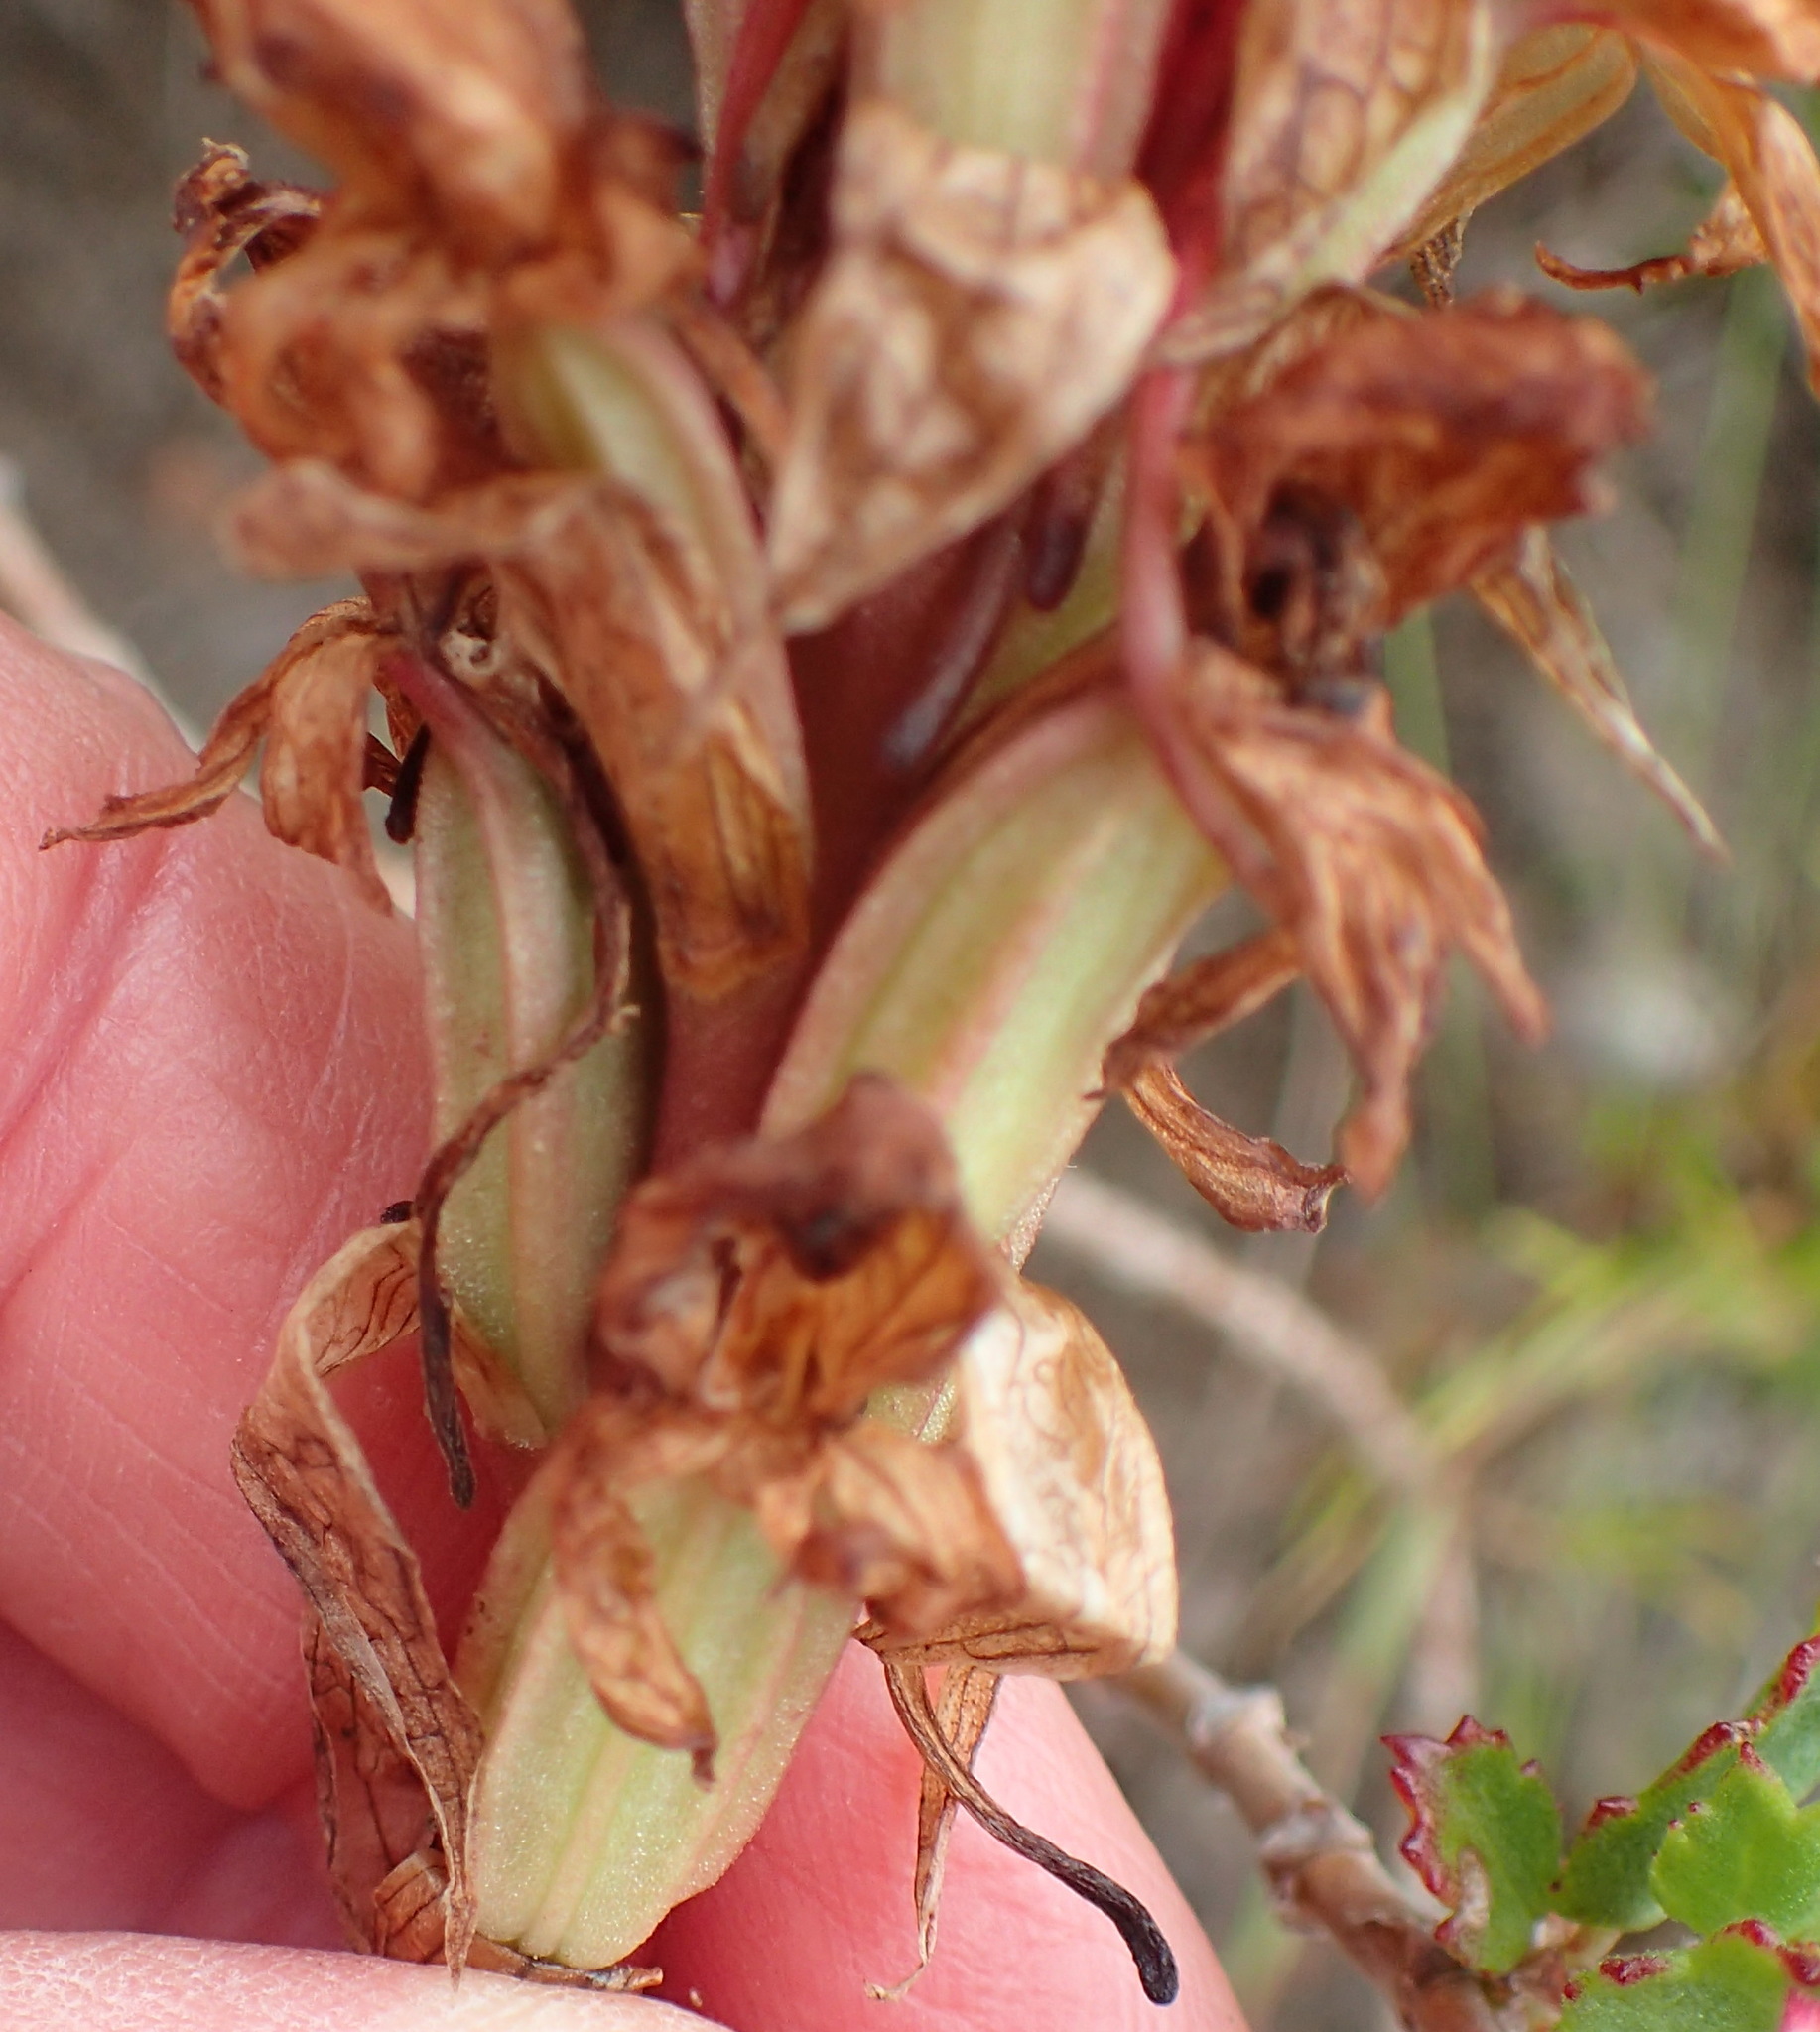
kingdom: Plantae
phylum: Tracheophyta
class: Liliopsida
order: Asparagales
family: Orchidaceae
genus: Satyrium
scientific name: Satyrium princeps
